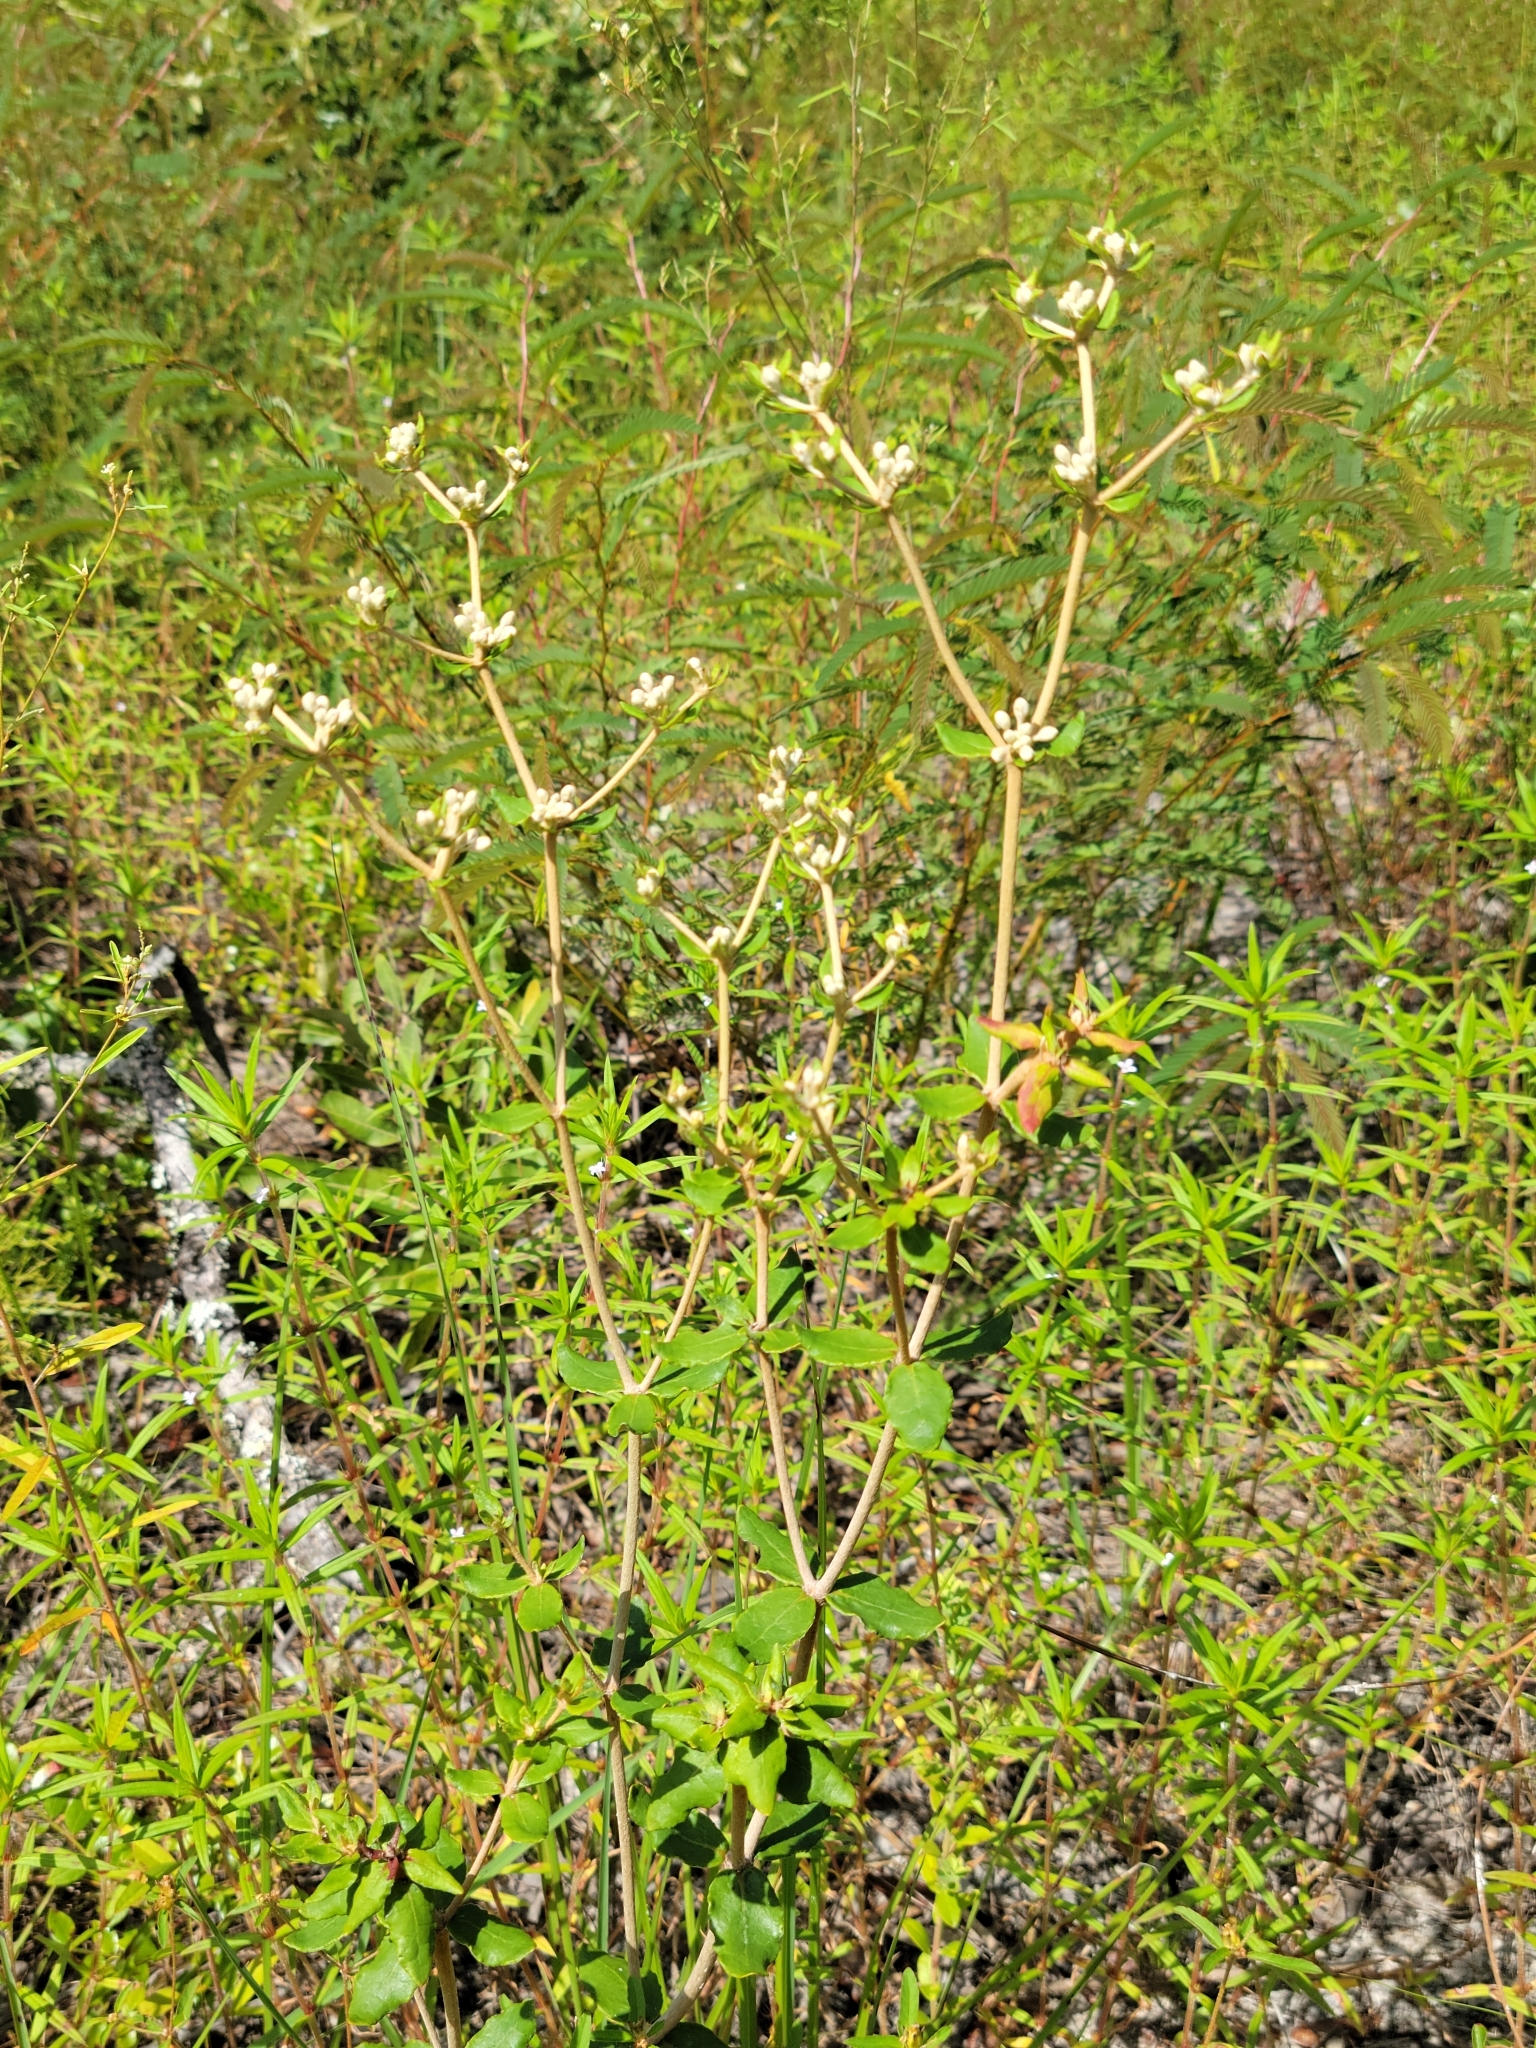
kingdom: Plantae
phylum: Tracheophyta
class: Magnoliopsida
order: Caryophyllales
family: Polygonaceae
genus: Eriogonum
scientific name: Eriogonum tomentosum
